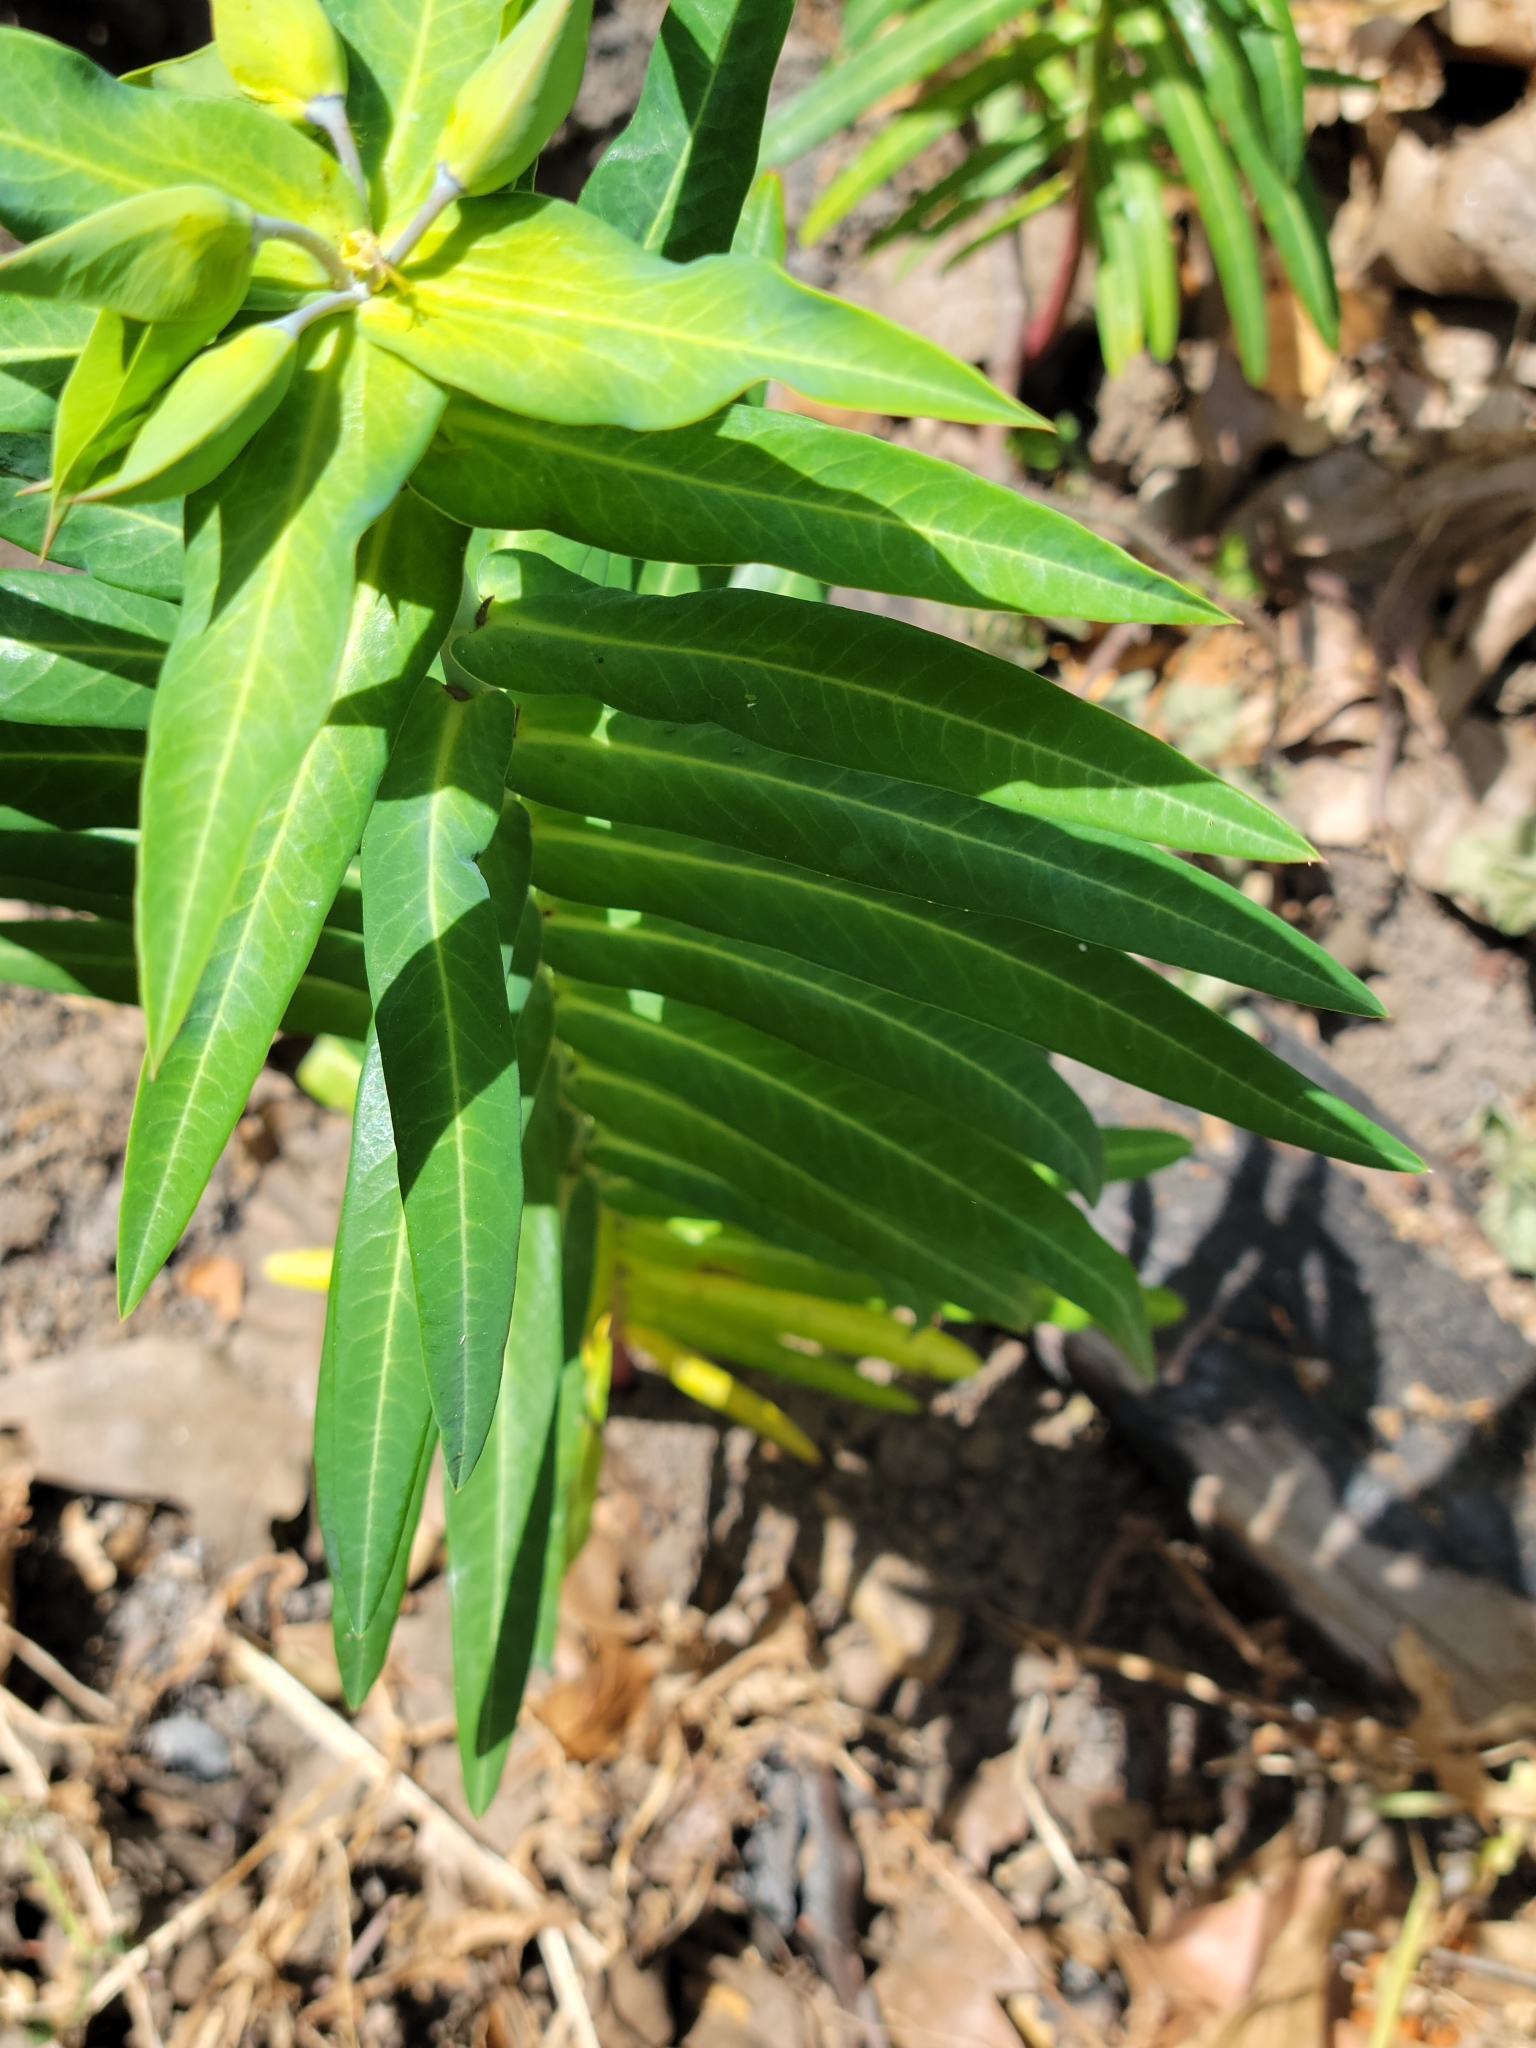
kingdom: Plantae
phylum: Tracheophyta
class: Magnoliopsida
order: Malpighiales
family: Euphorbiaceae
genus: Euphorbia
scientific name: Euphorbia lathyris
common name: Caper spurge
